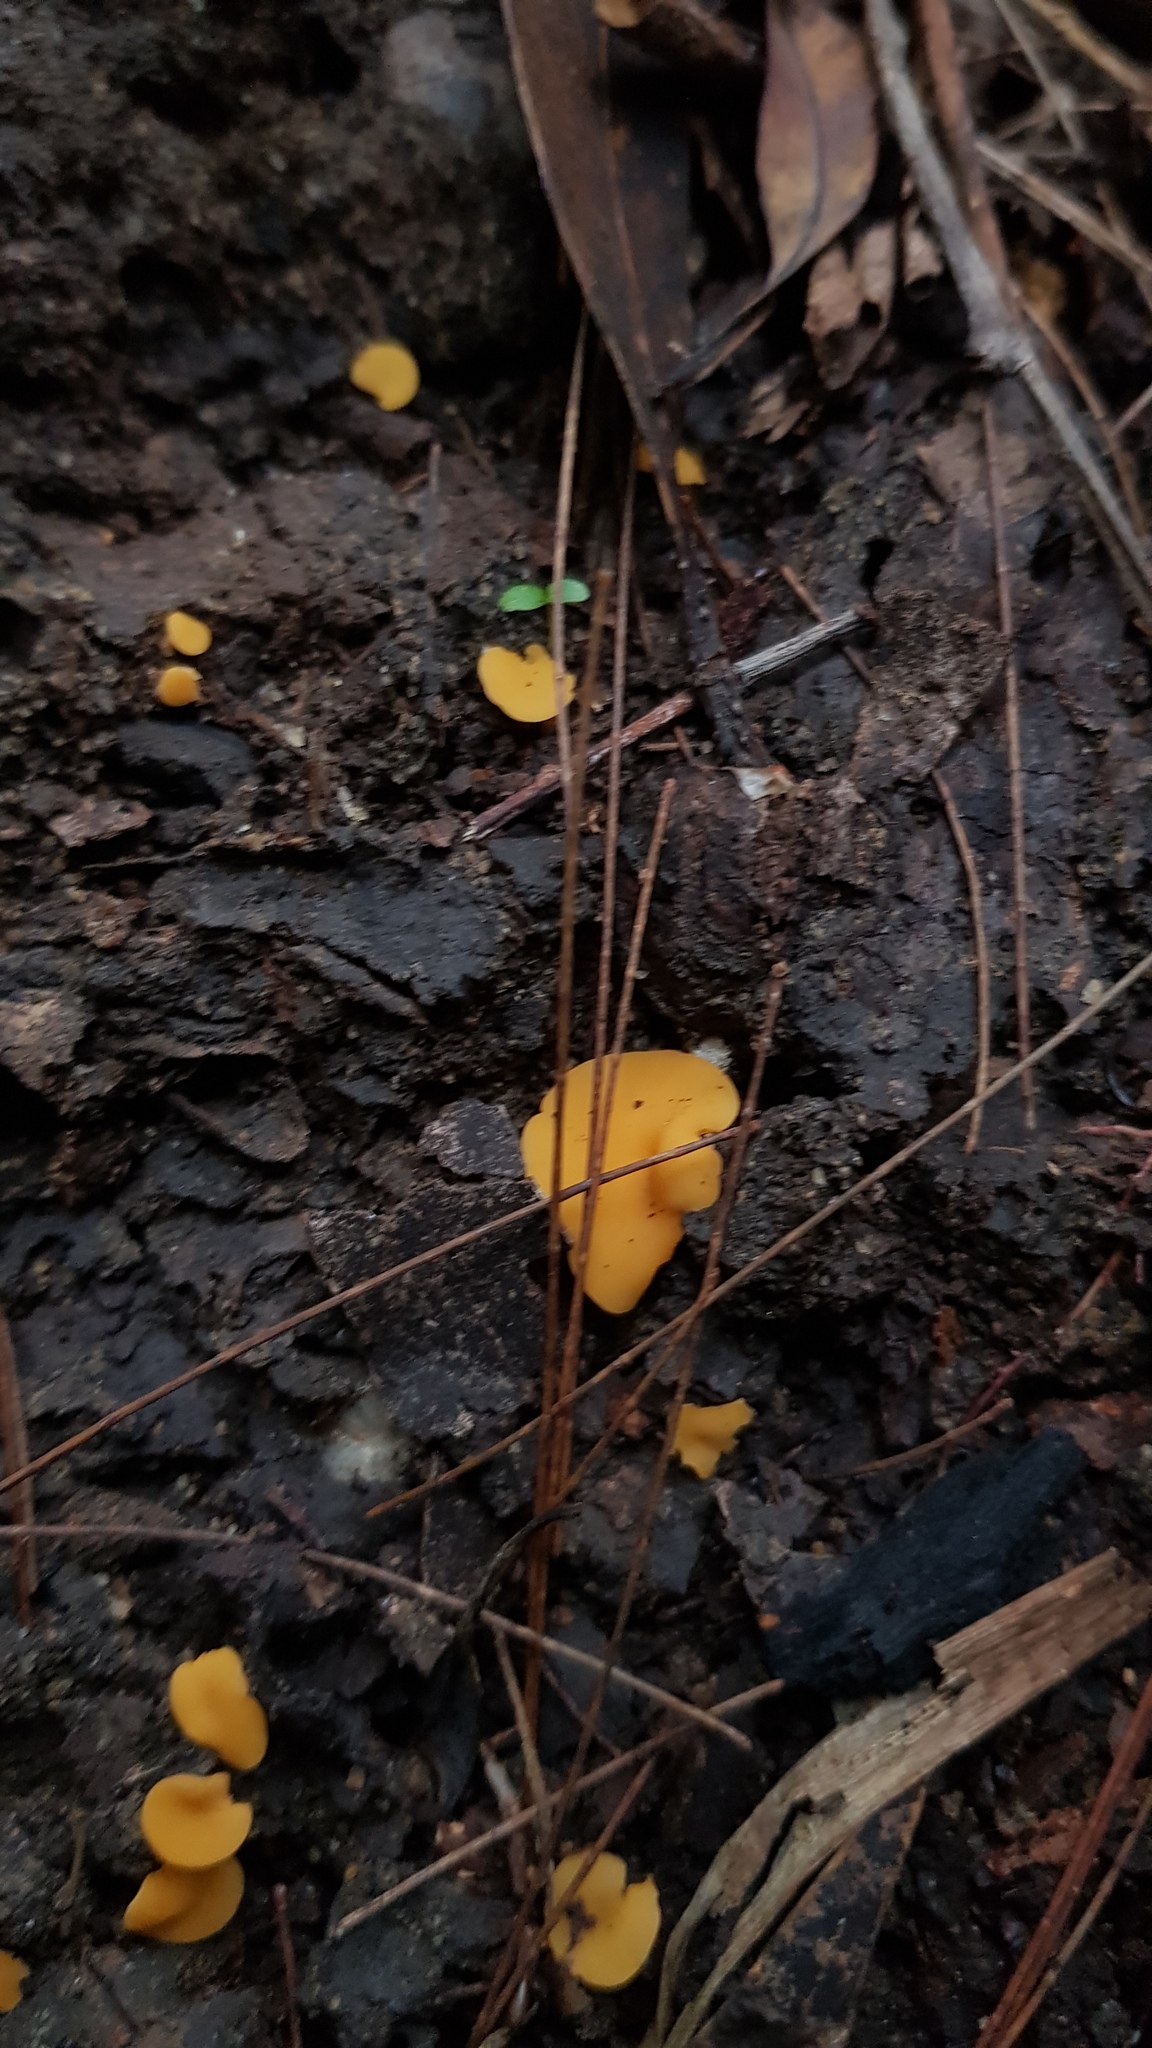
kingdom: Fungi
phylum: Ascomycota
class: Leotiomycetes
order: Helotiales
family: Helotiaceae
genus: Phaeohelotium
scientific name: Phaeohelotium baileyanum
